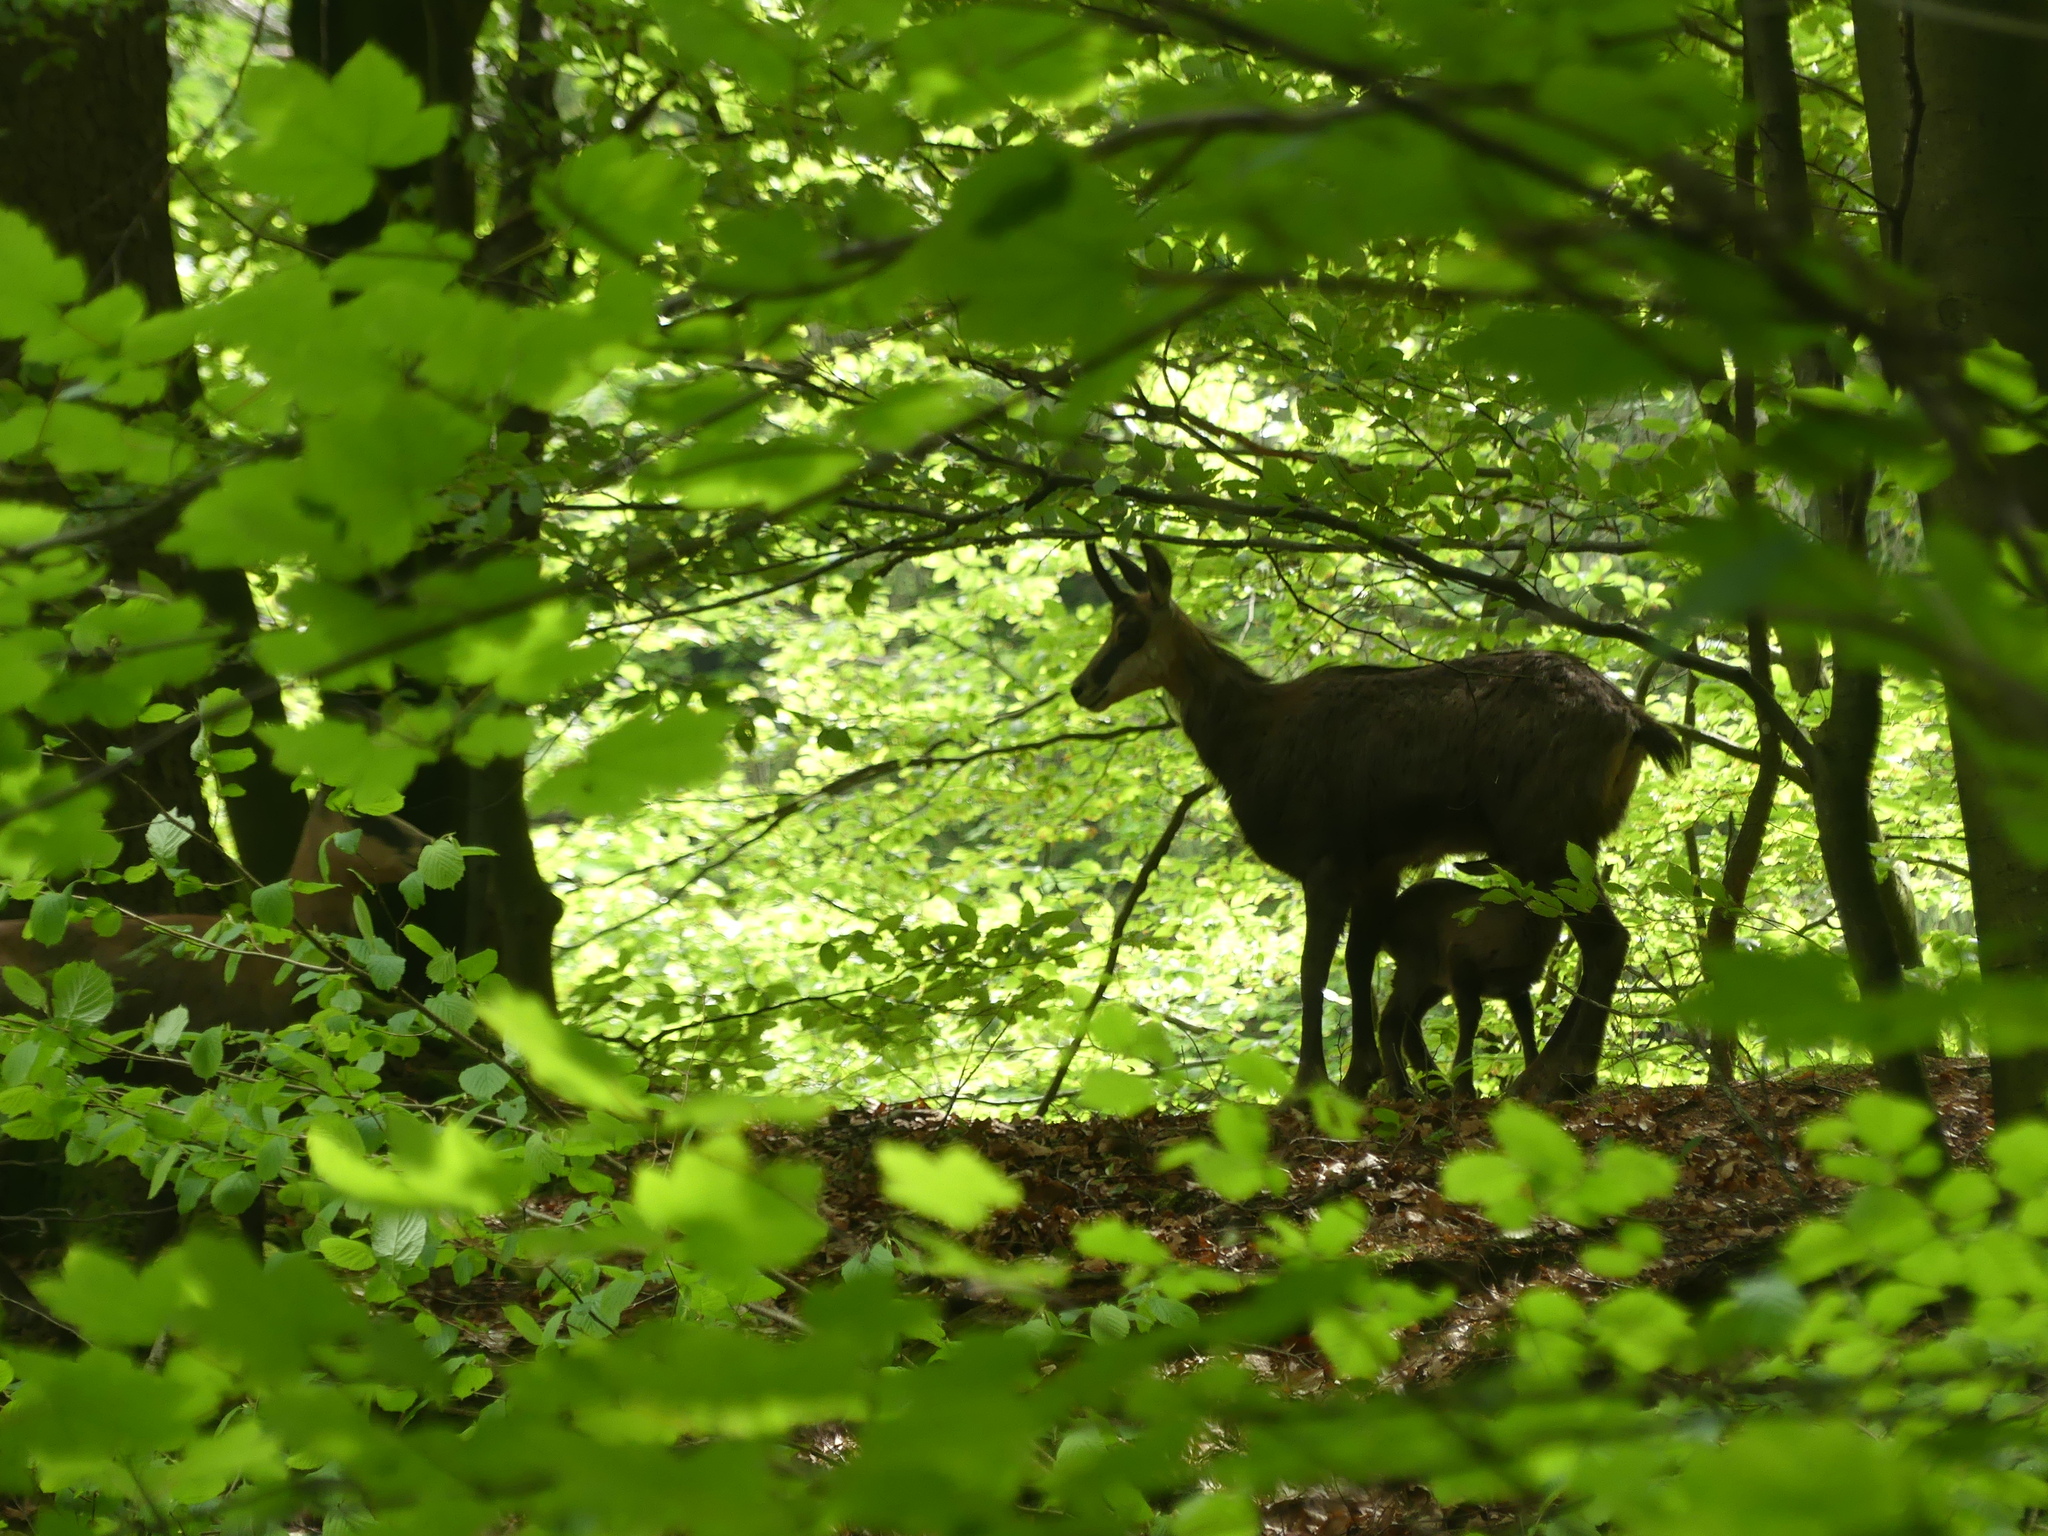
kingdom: Animalia
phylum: Chordata
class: Mammalia
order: Artiodactyla
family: Bovidae
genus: Rupicapra
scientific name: Rupicapra rupicapra
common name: Chamois
